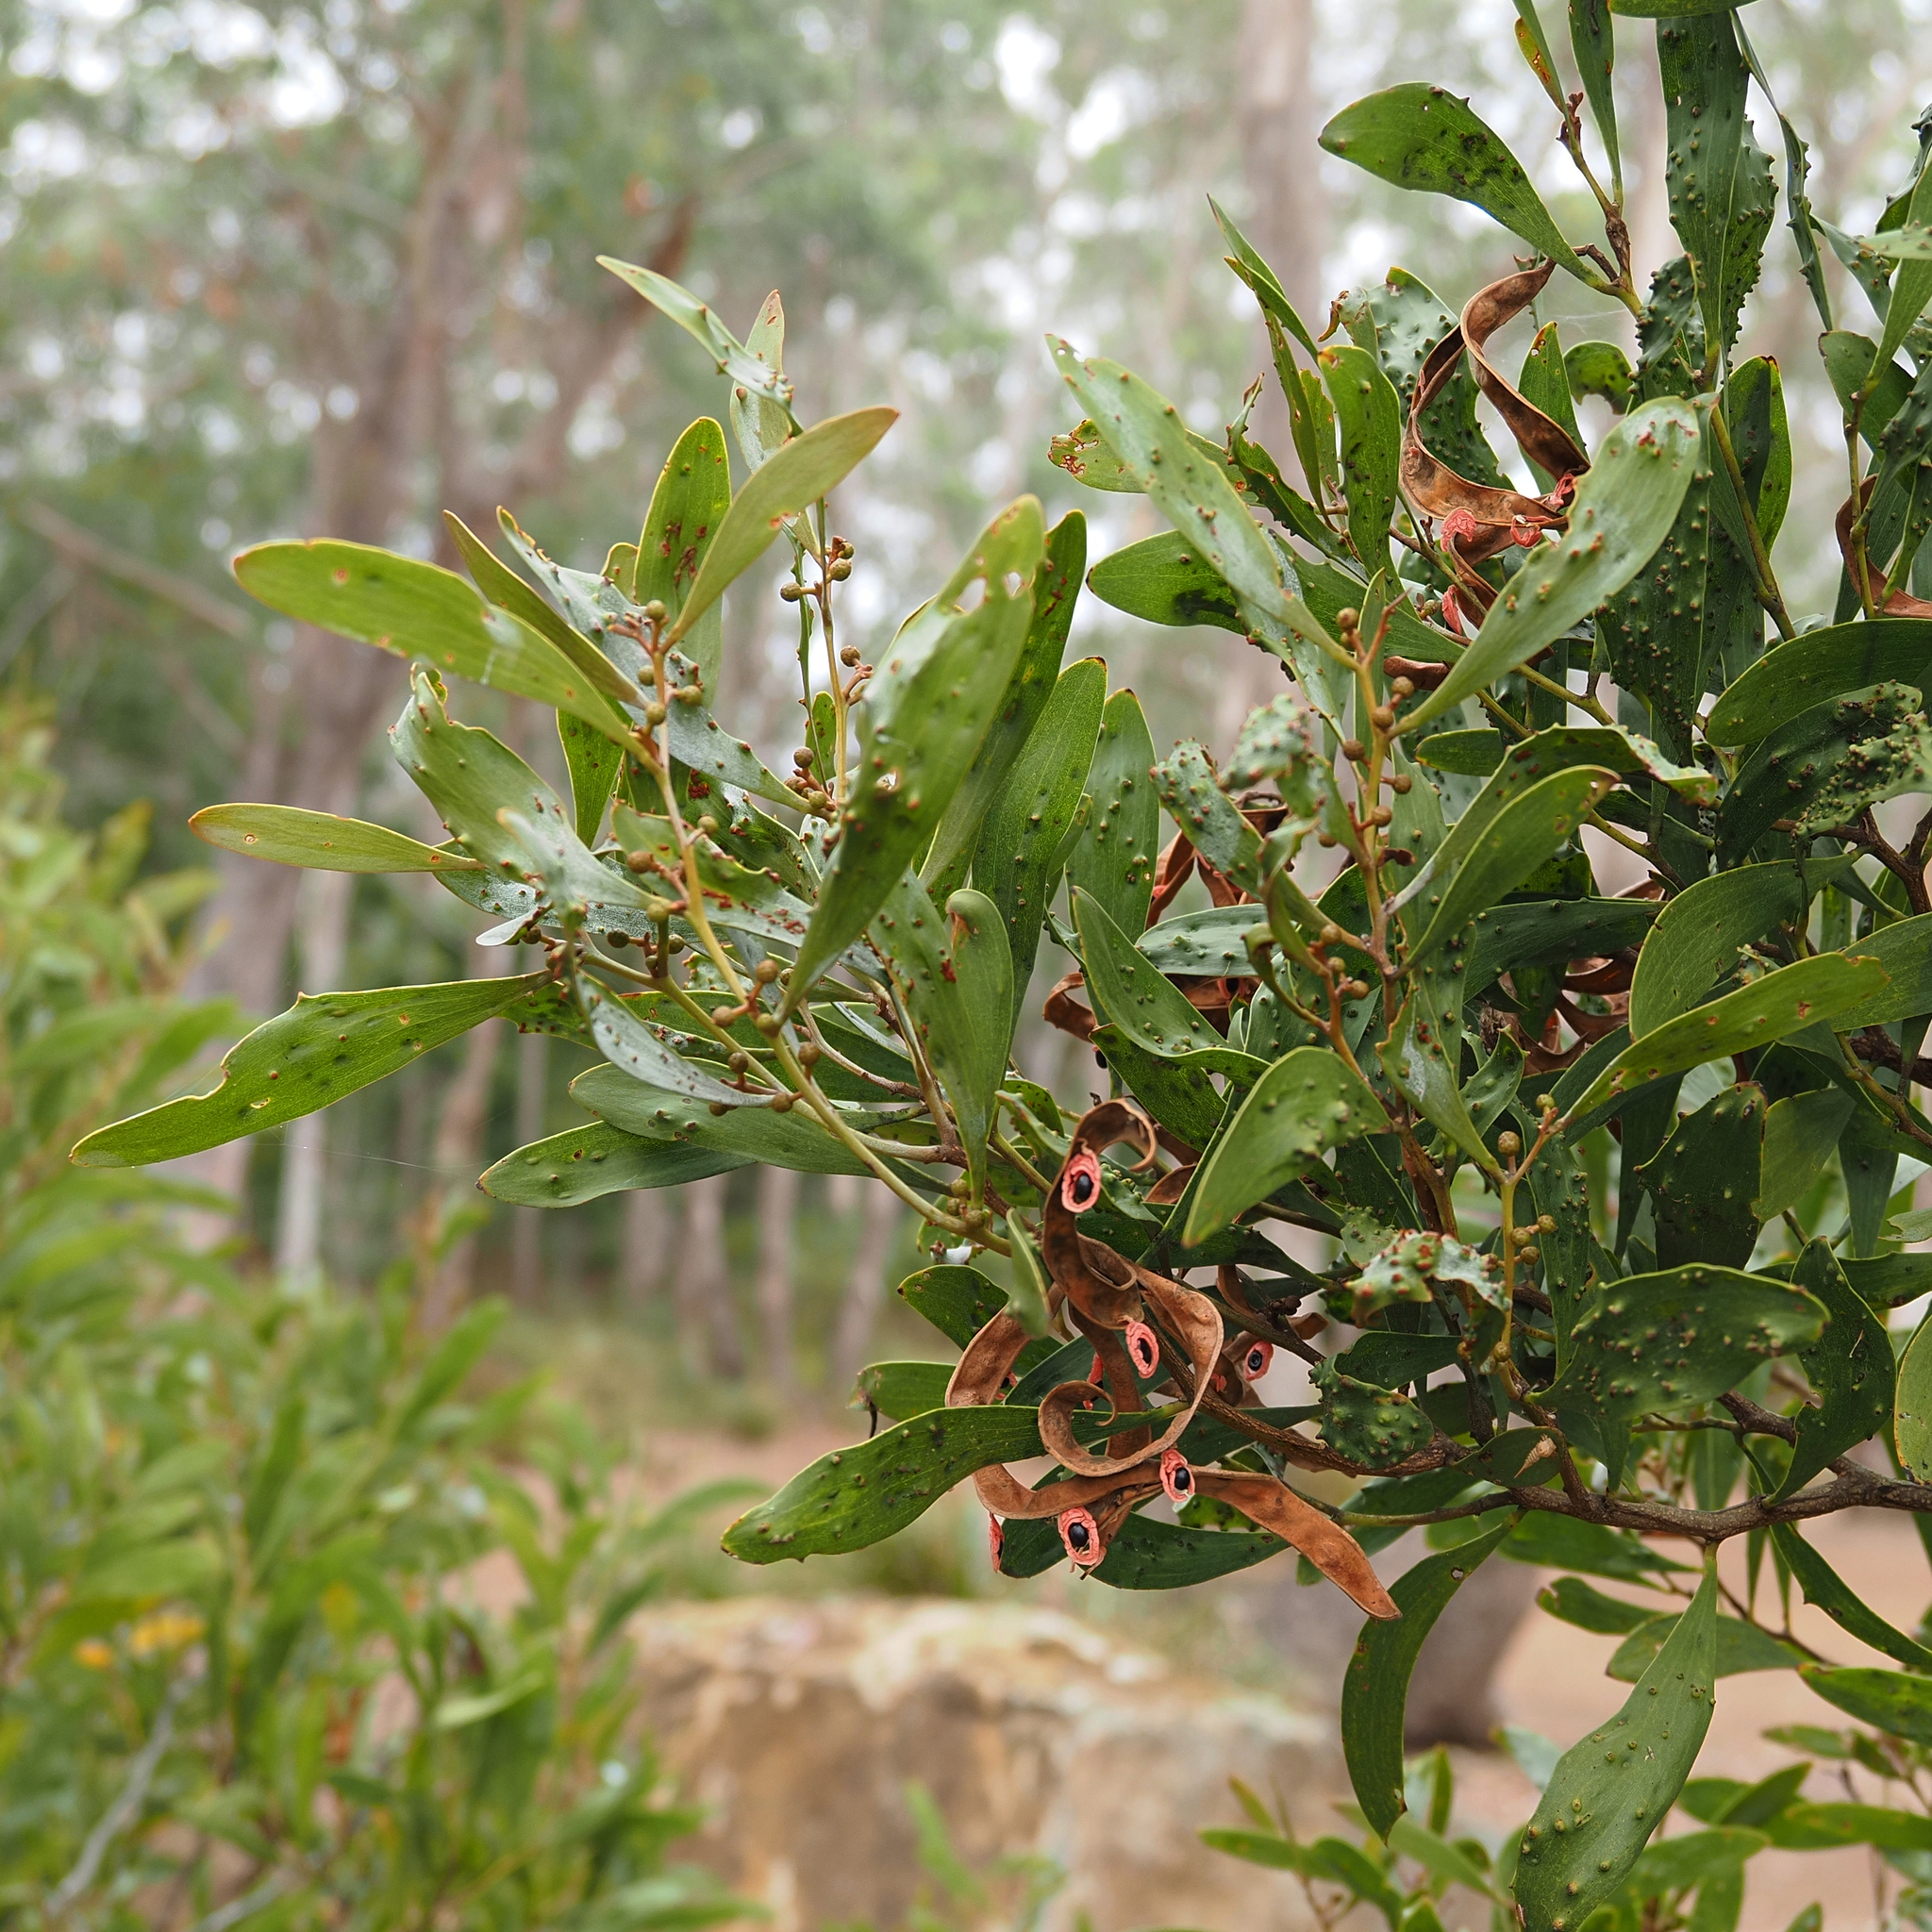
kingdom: Plantae
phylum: Tracheophyta
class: Magnoliopsida
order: Fabales
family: Fabaceae
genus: Acacia
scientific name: Acacia melanoxylon
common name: Blackwood
